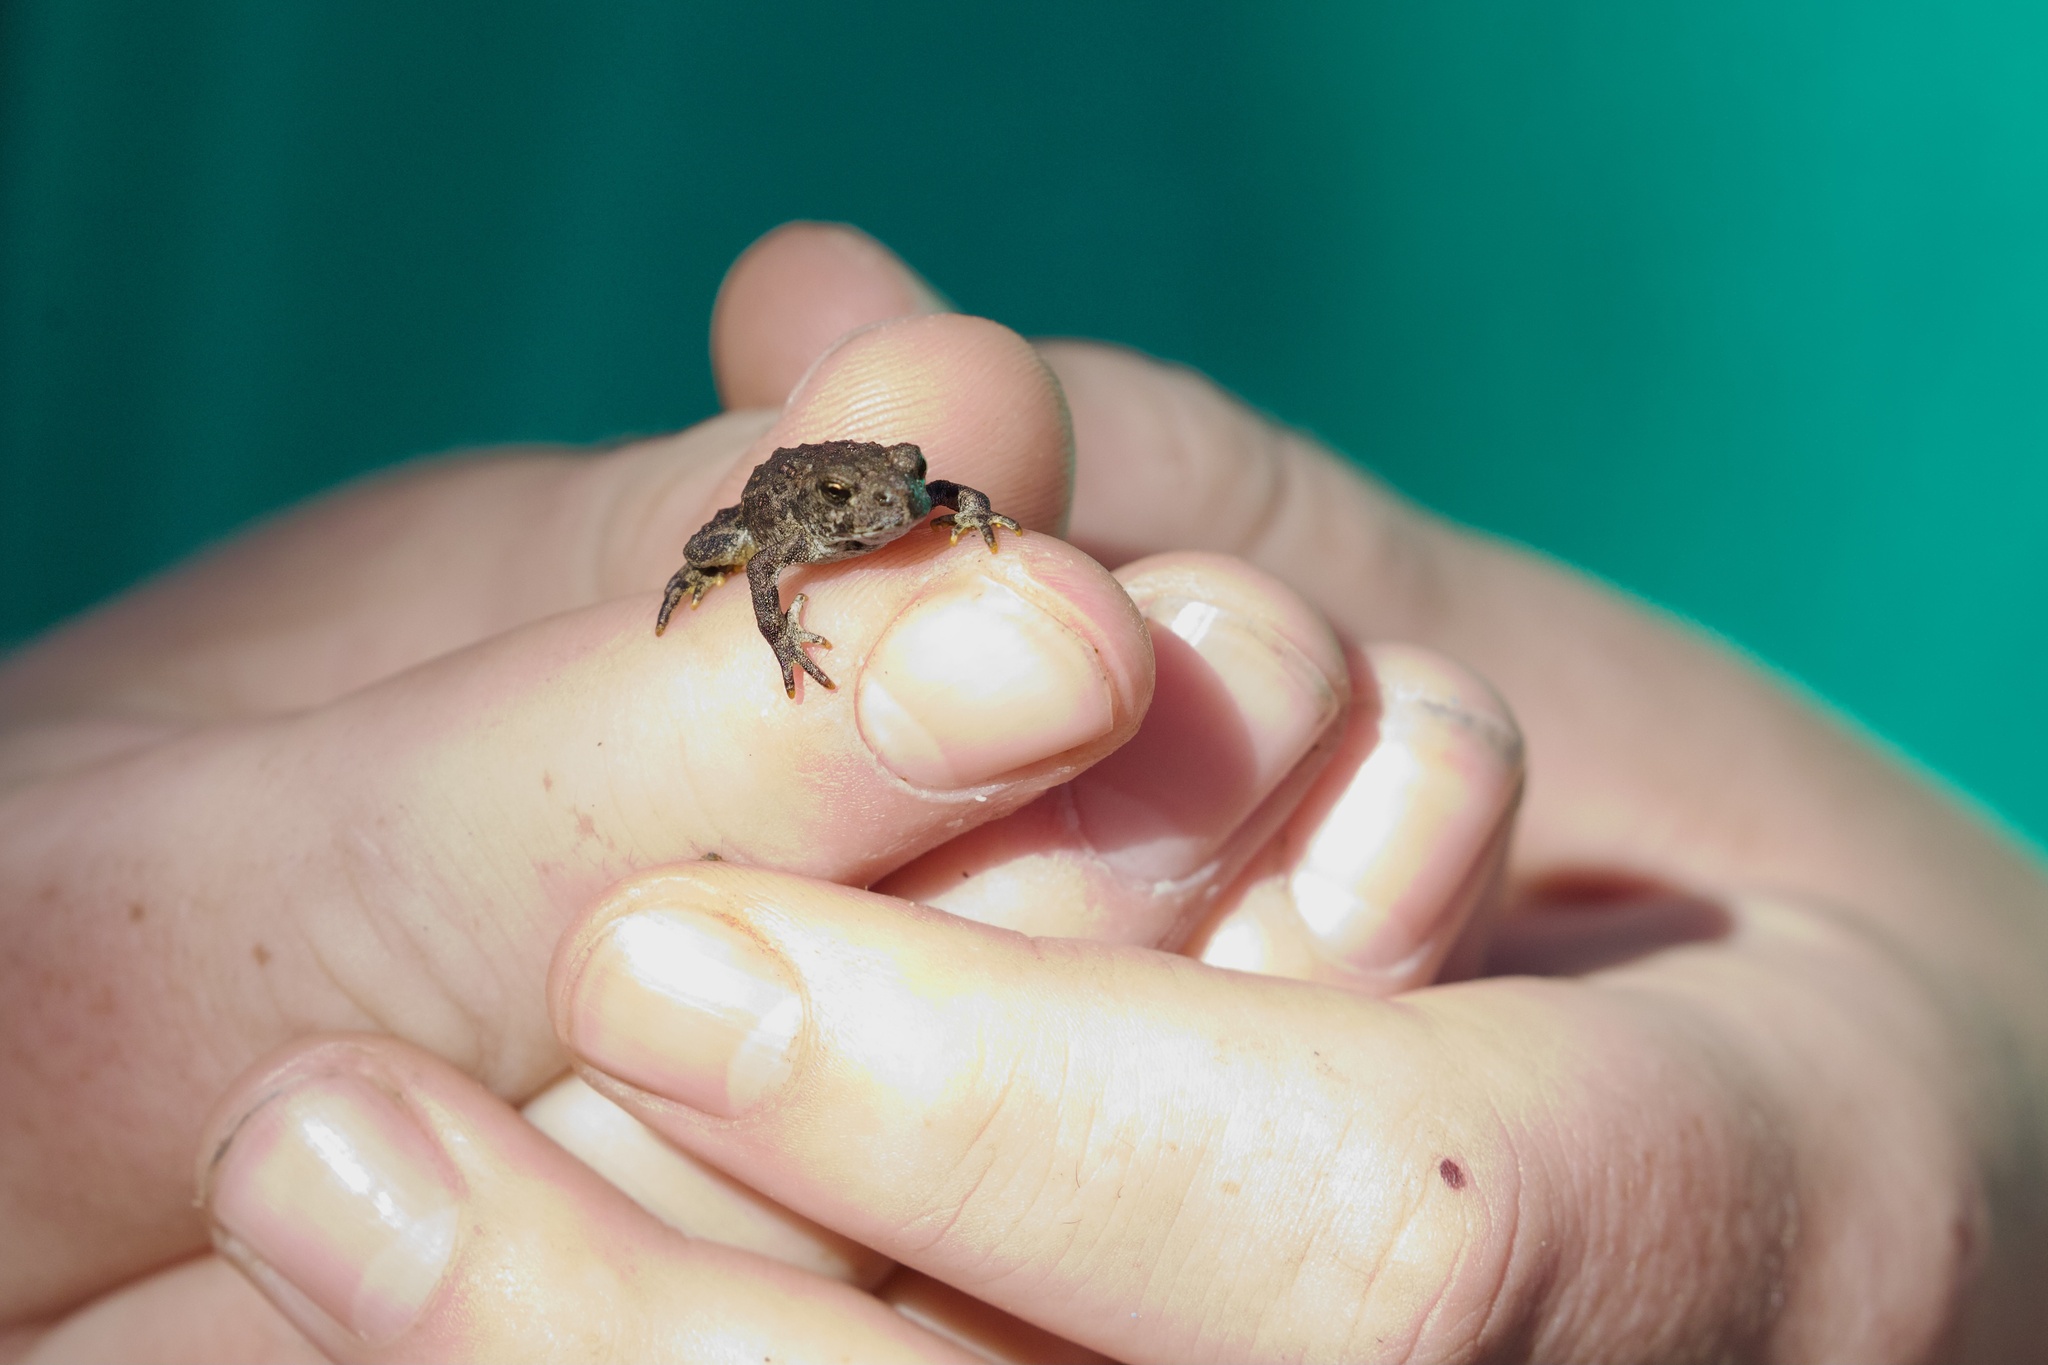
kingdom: Animalia
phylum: Chordata
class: Amphibia
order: Anura
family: Bufonidae
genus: Anaxyrus
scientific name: Anaxyrus boreas
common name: Western toad
